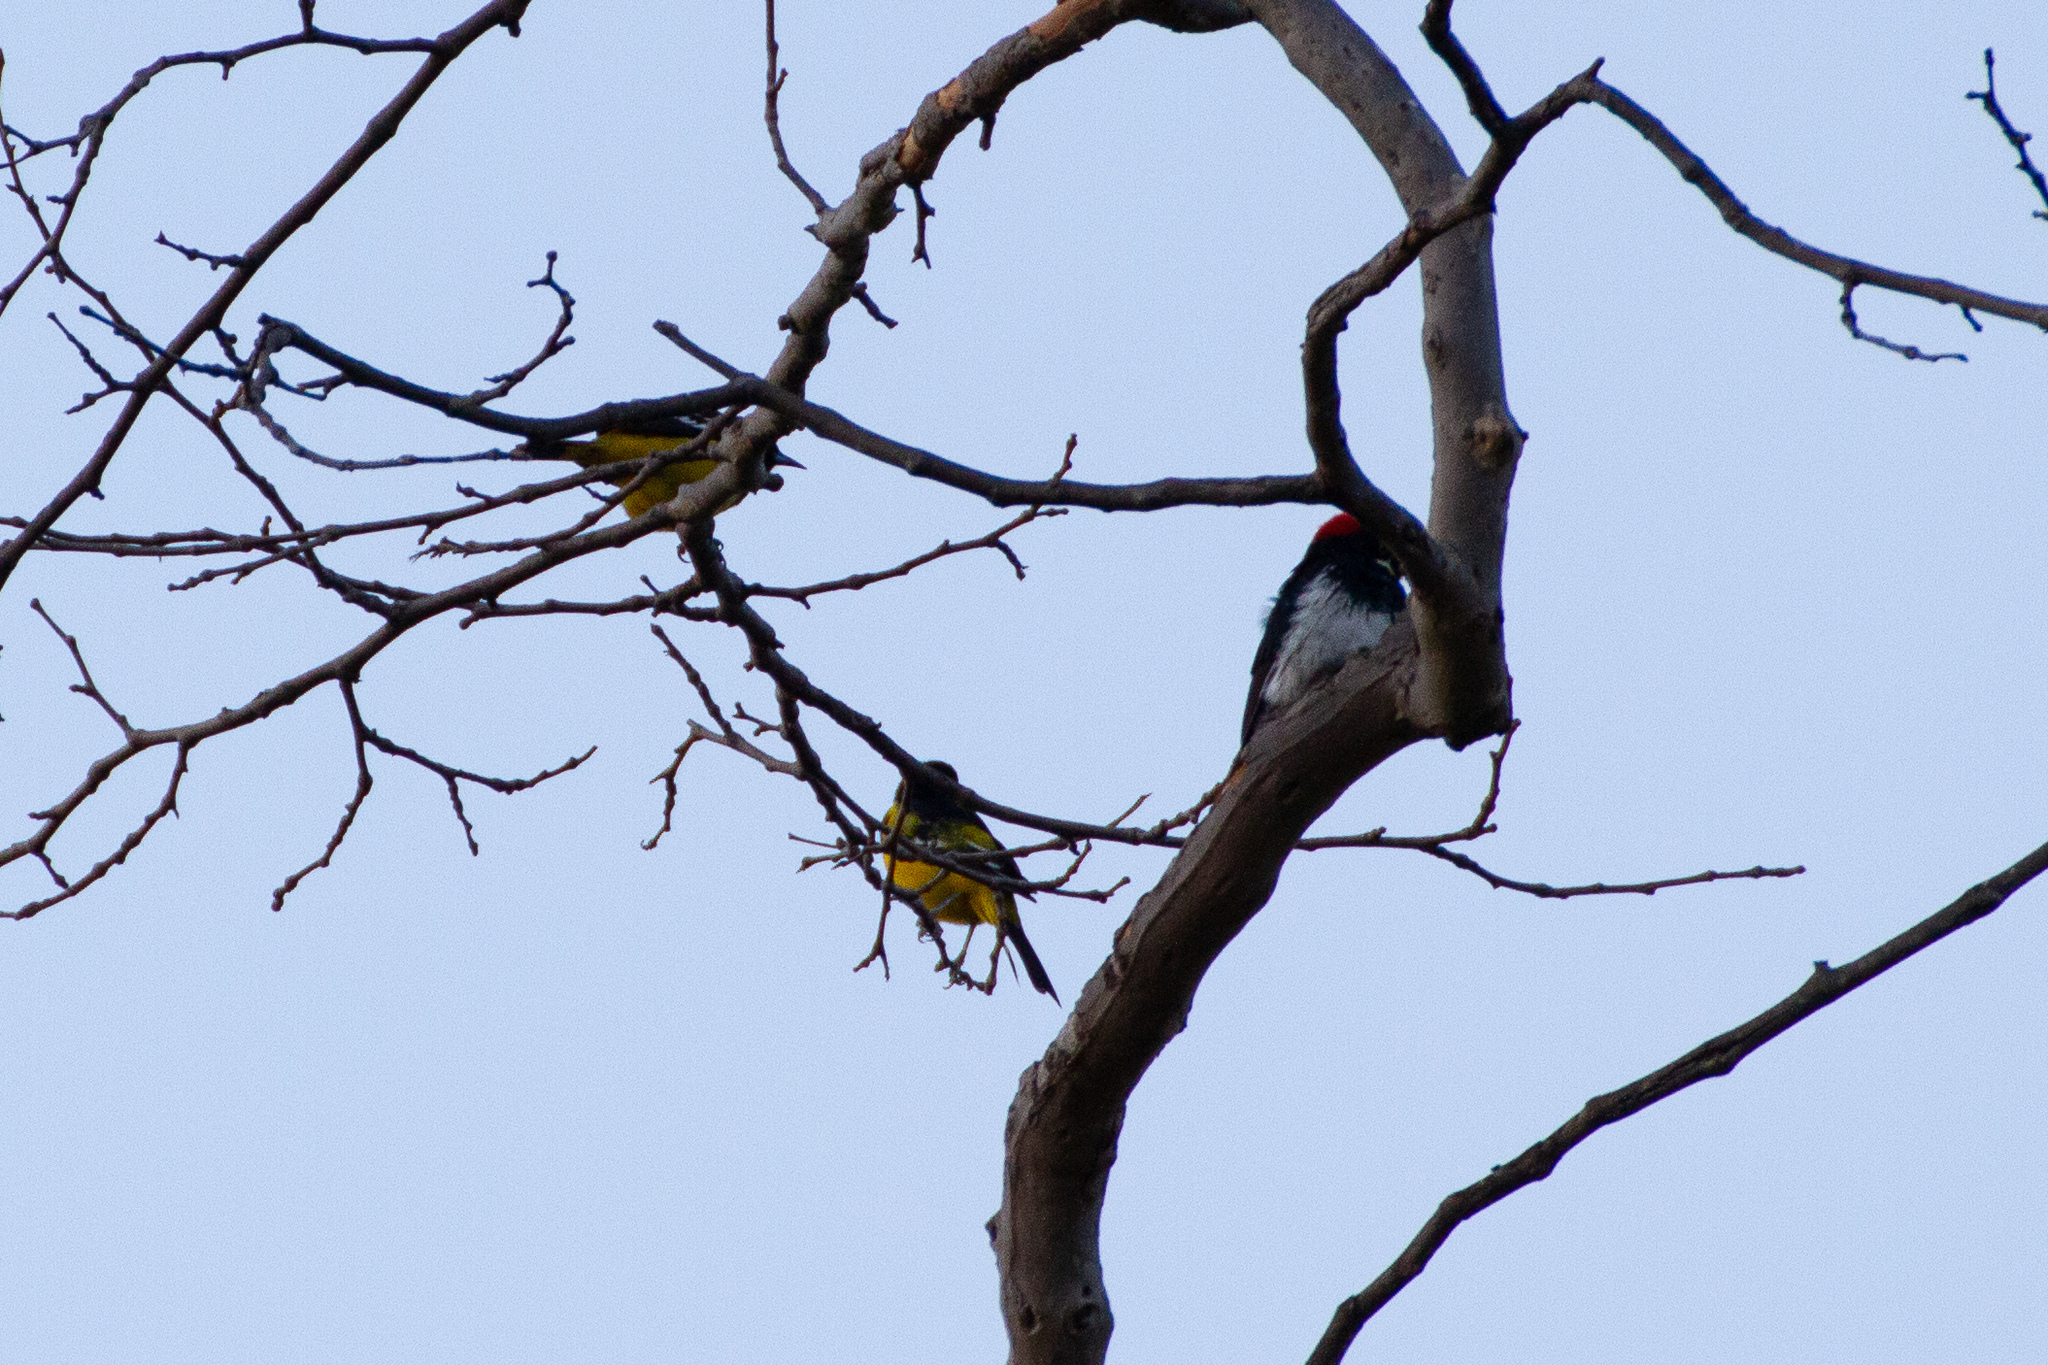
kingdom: Animalia
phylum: Chordata
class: Aves
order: Passeriformes
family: Icteridae
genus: Icterus
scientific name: Icterus parisorum
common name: Scott's oriole
